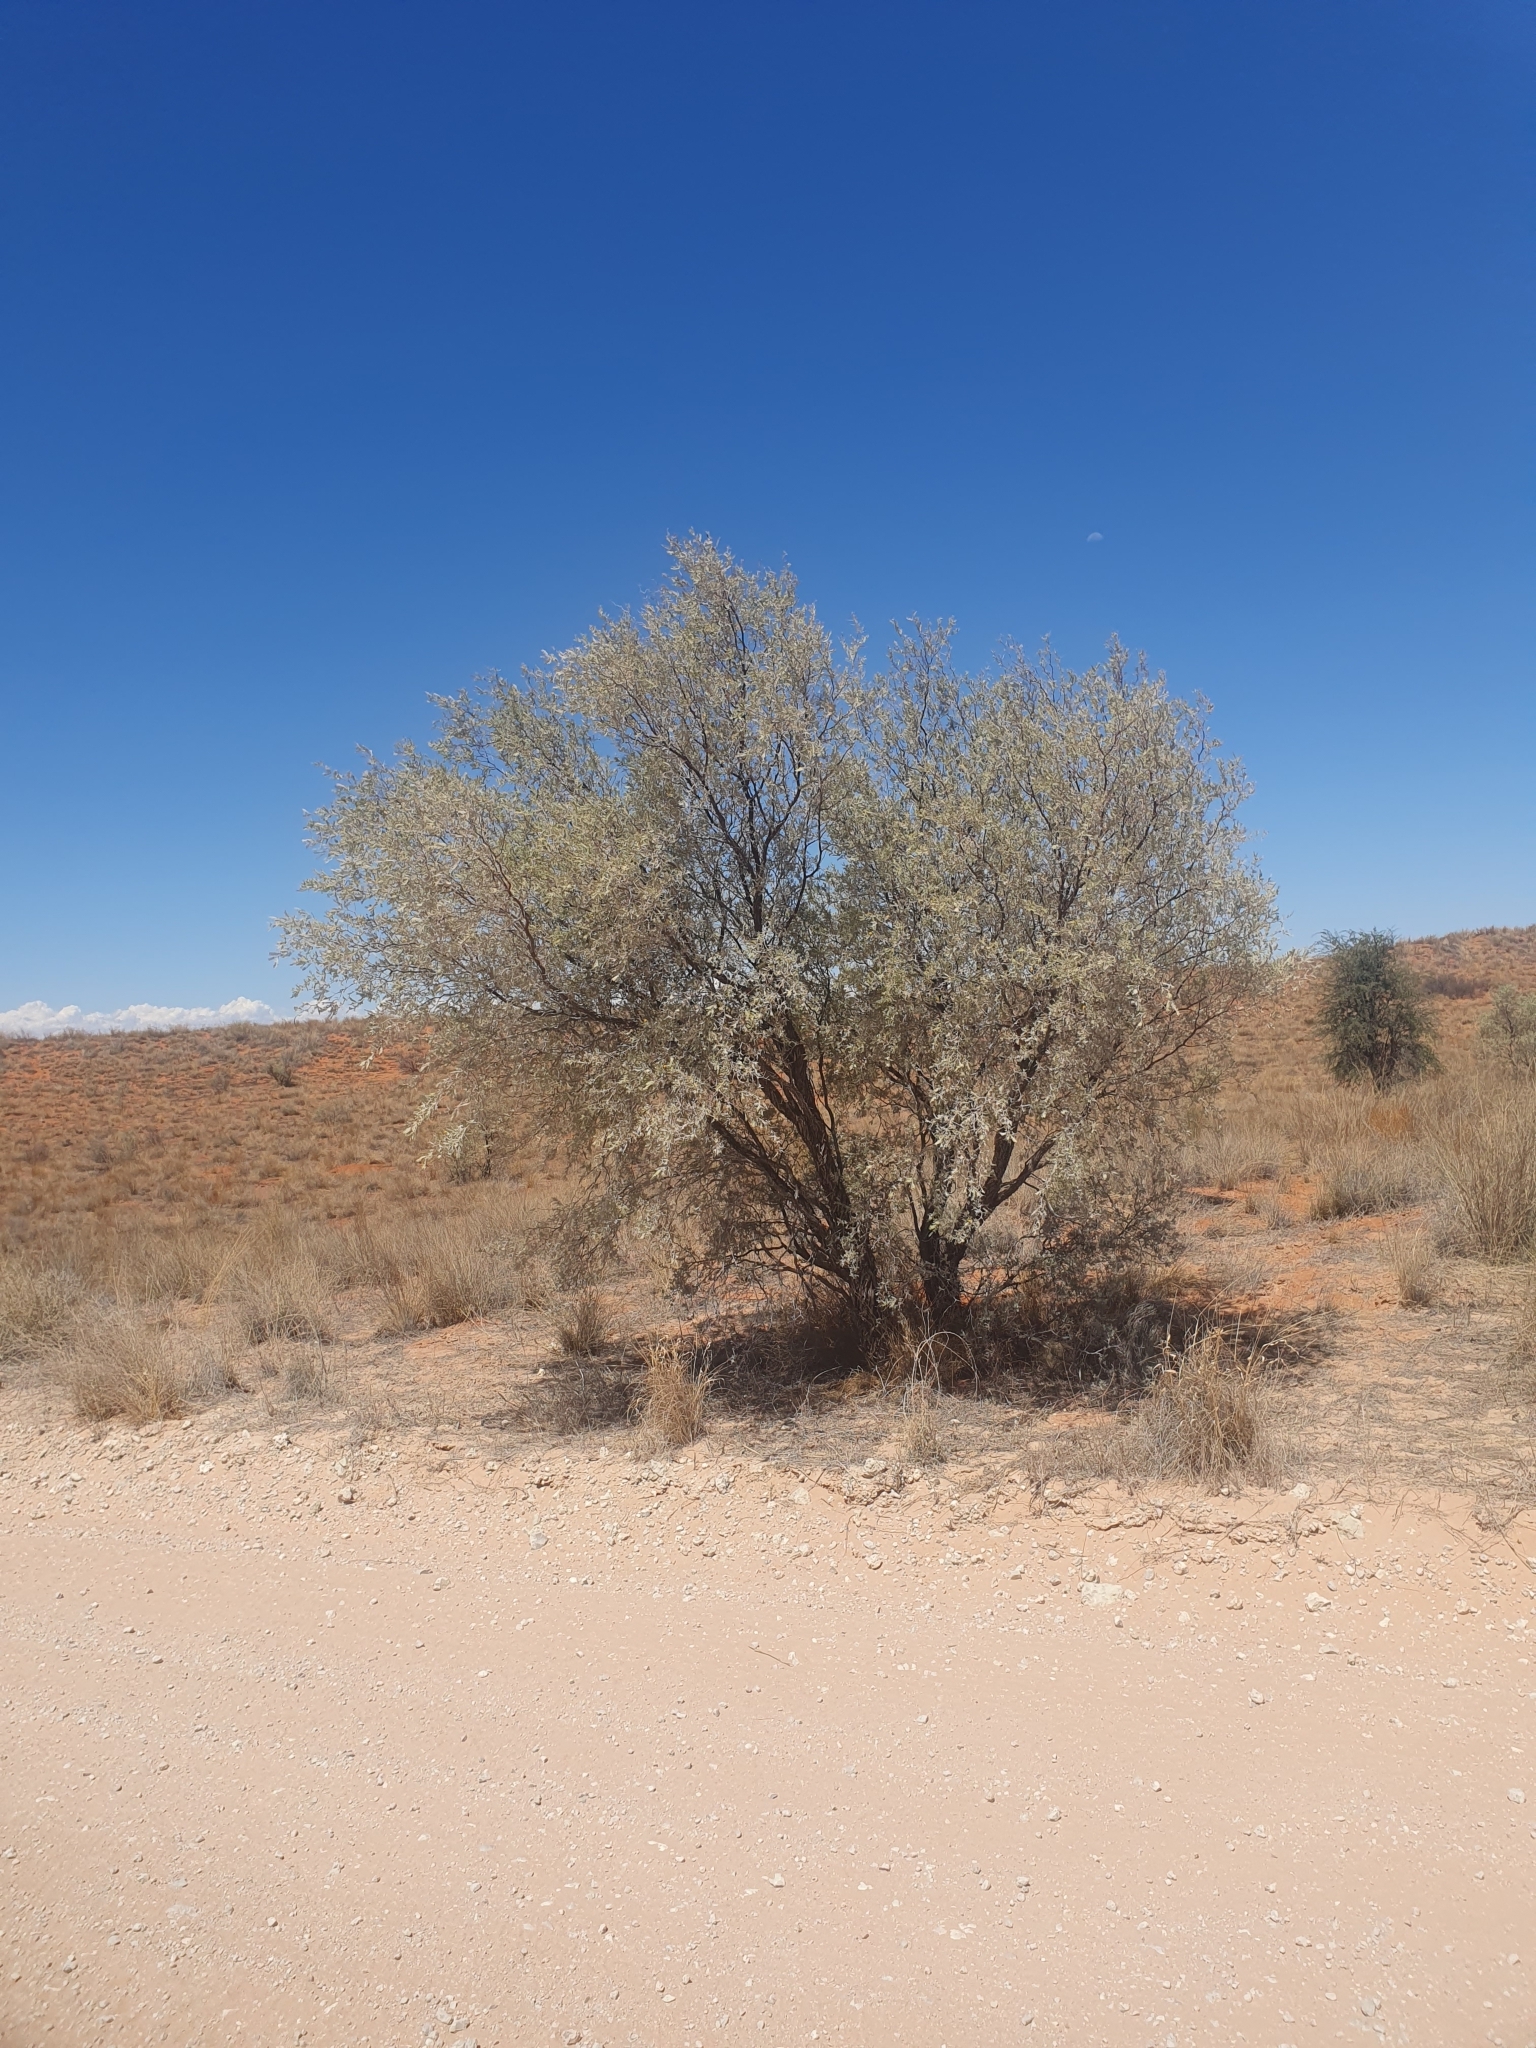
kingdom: Plantae
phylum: Tracheophyta
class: Magnoliopsida
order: Fabales
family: Fabaceae
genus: Vachellia
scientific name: Vachellia haematoxylon
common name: Grey camel thorn
